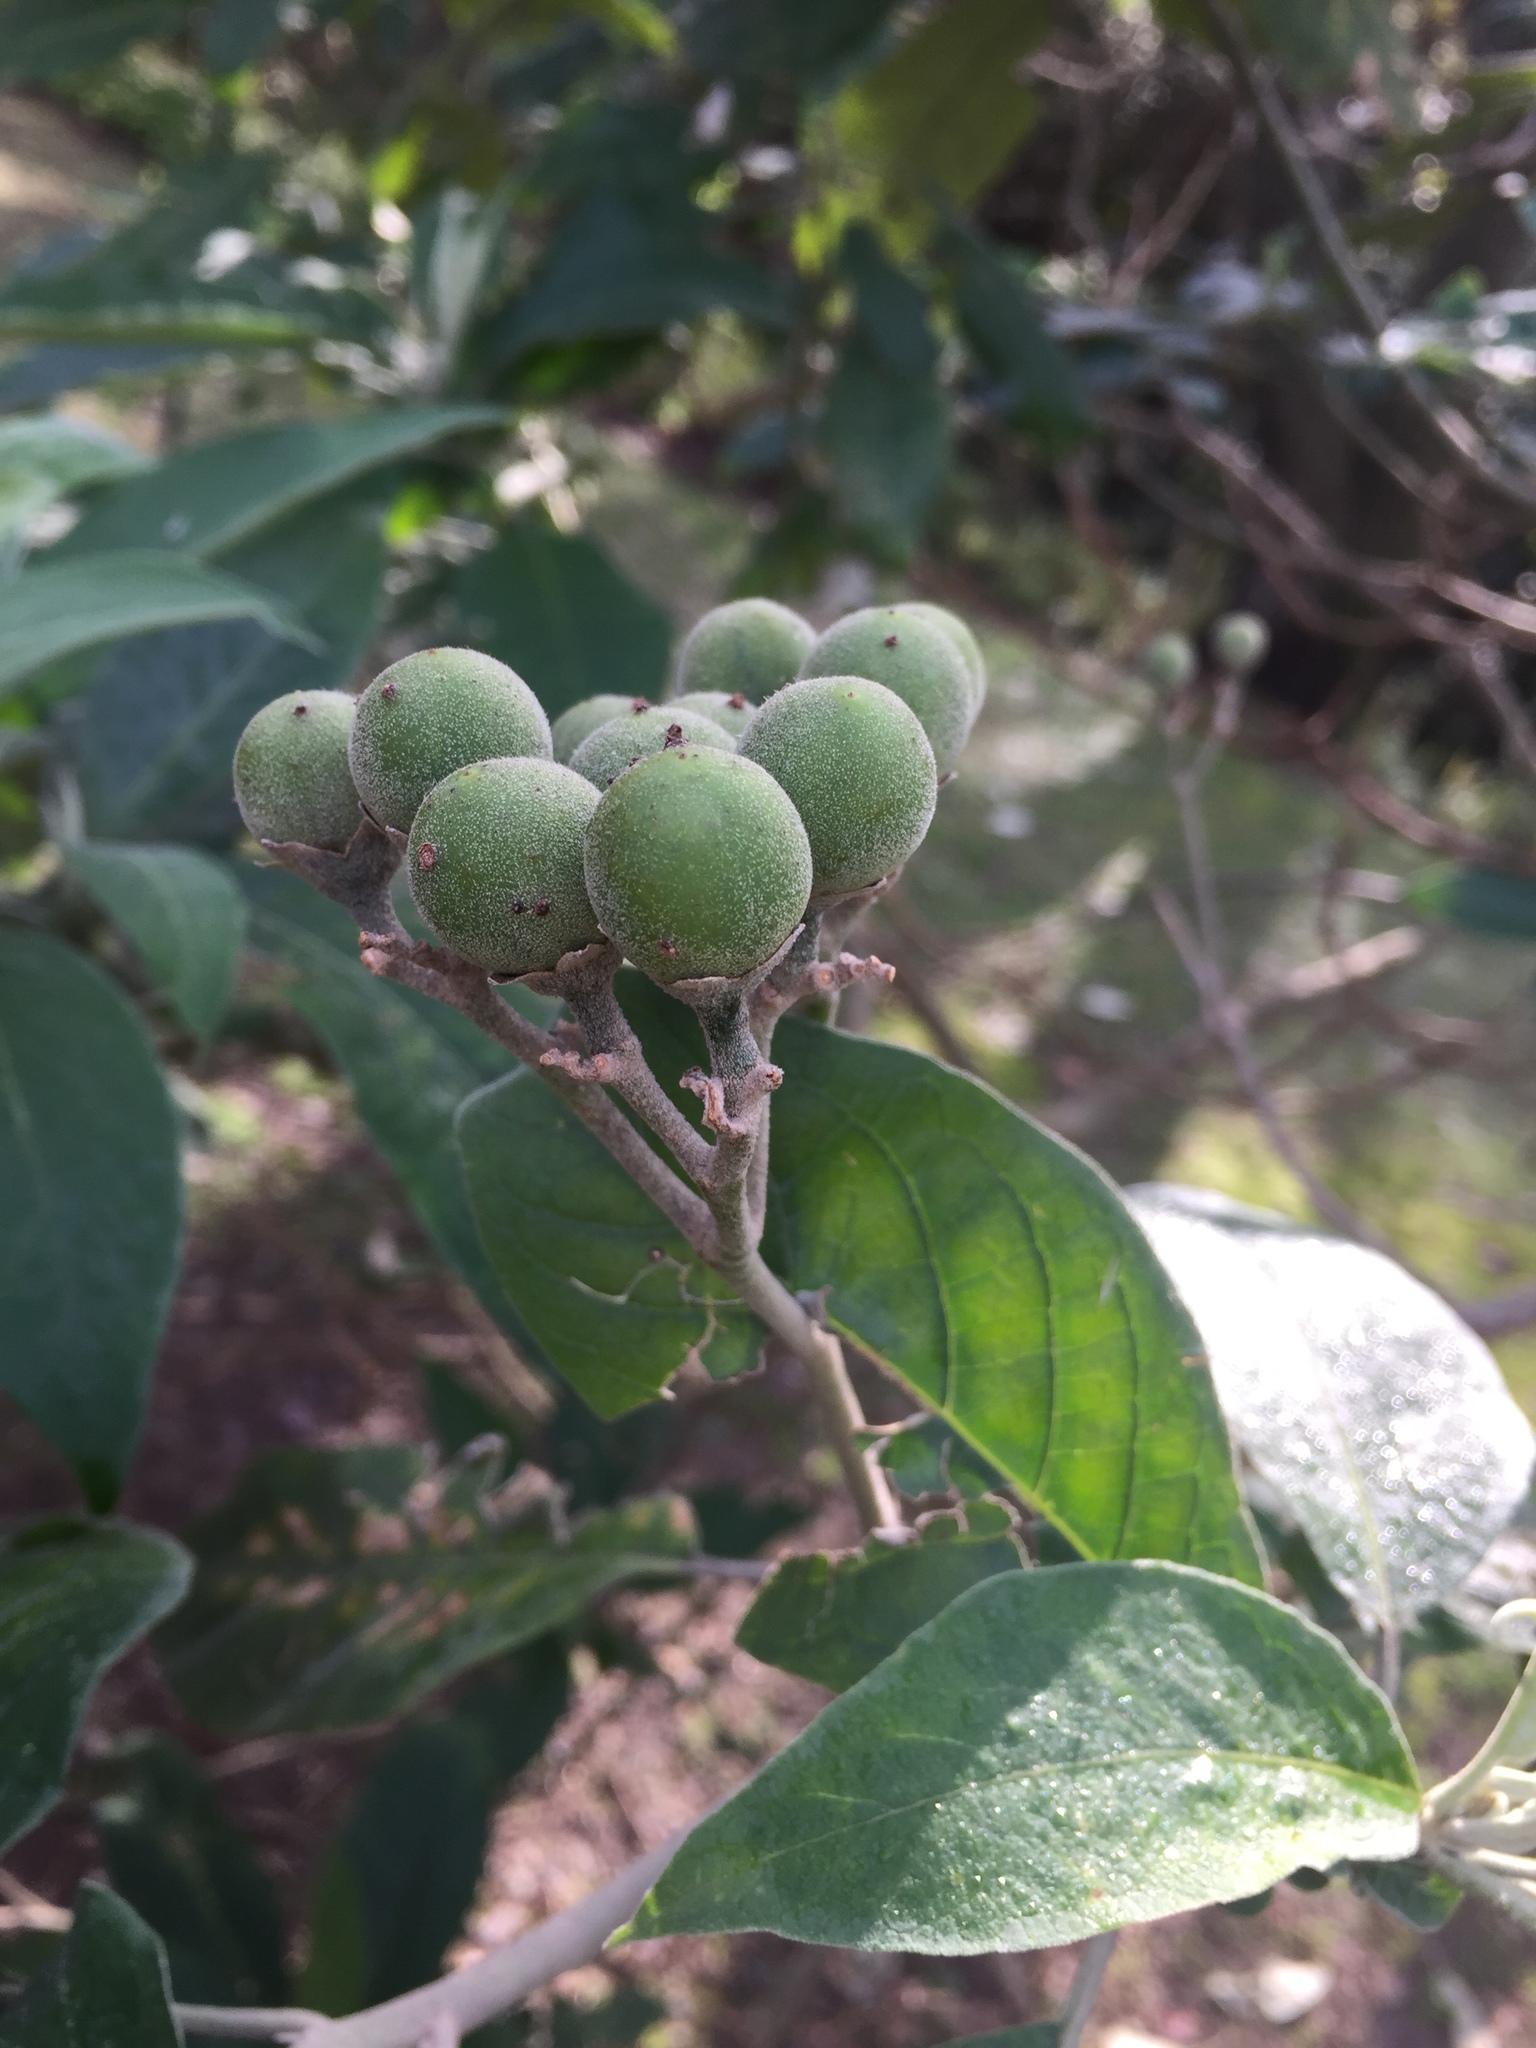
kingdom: Plantae
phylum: Tracheophyta
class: Magnoliopsida
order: Solanales
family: Solanaceae
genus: Solanum
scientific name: Solanum granulosoleprosum
